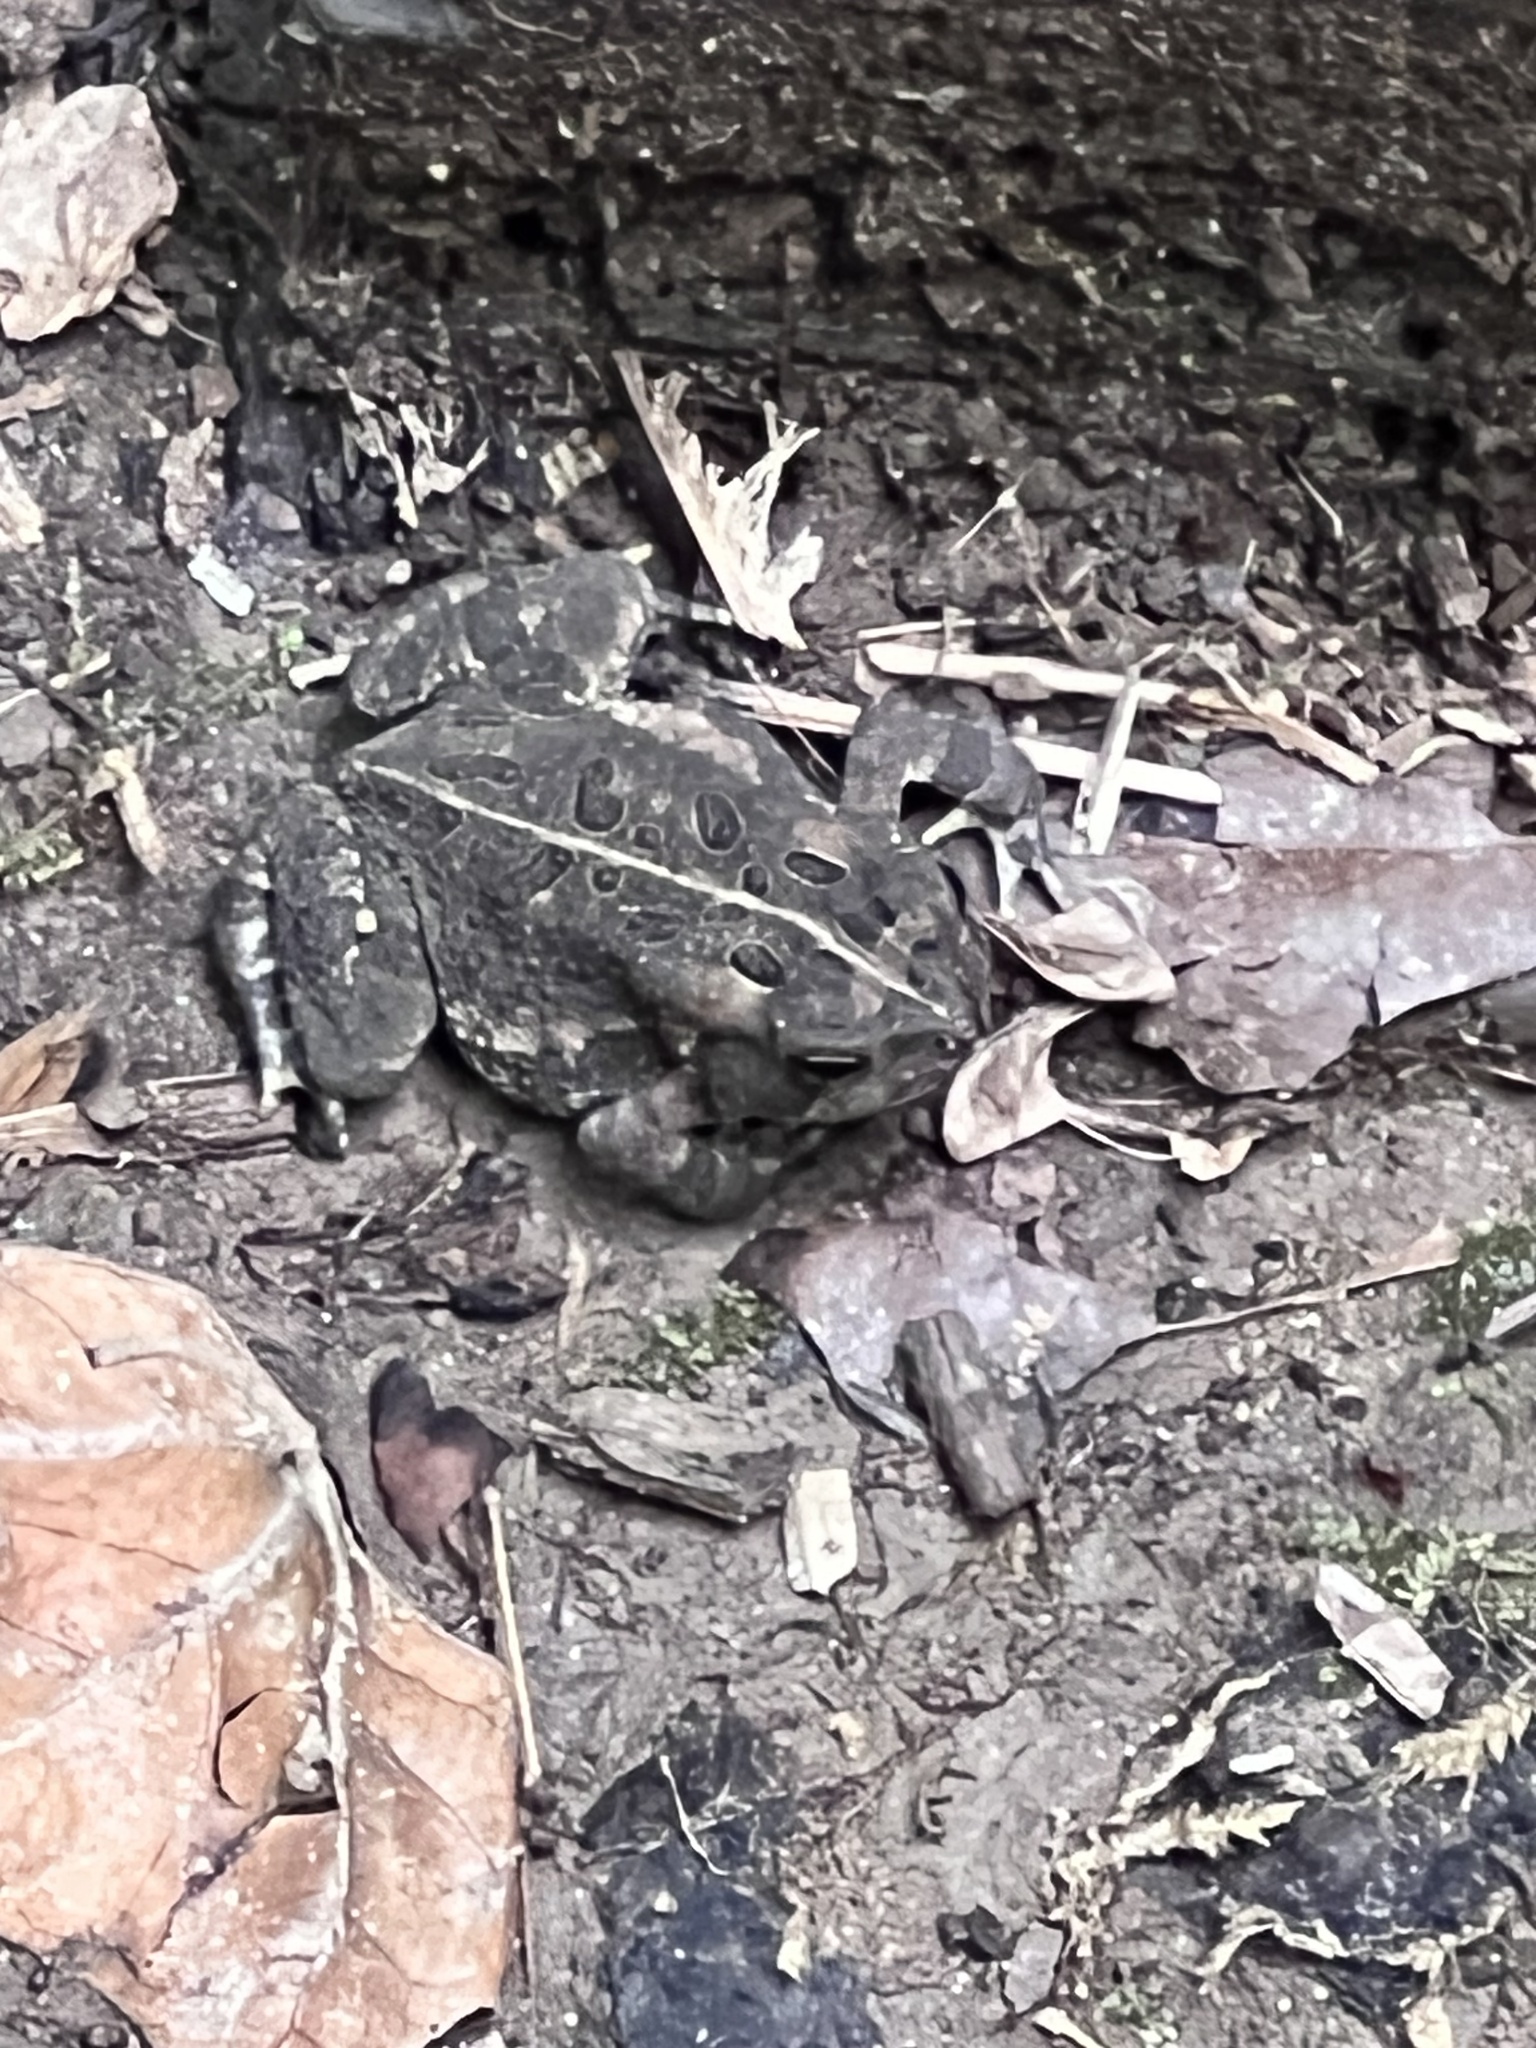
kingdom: Animalia
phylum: Chordata
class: Amphibia
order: Anura
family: Bufonidae
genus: Anaxyrus
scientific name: Anaxyrus fowleri
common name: Fowler's toad
